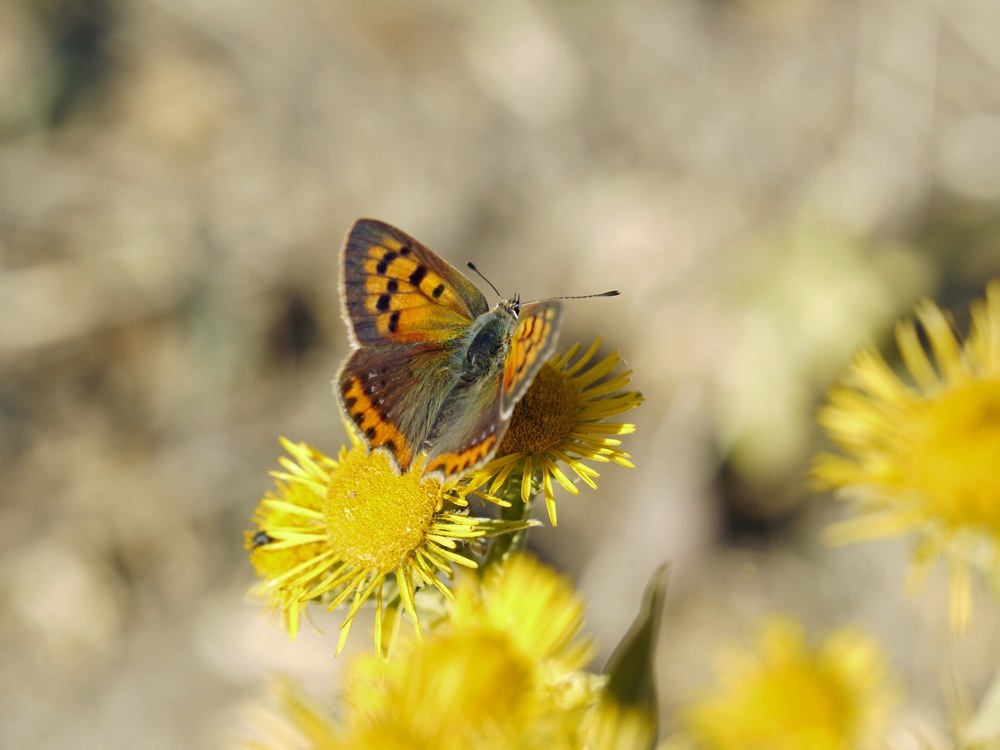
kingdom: Animalia
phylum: Arthropoda
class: Insecta
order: Lepidoptera
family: Lycaenidae
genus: Lycaena
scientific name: Lycaena phlaeas
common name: Small copper
